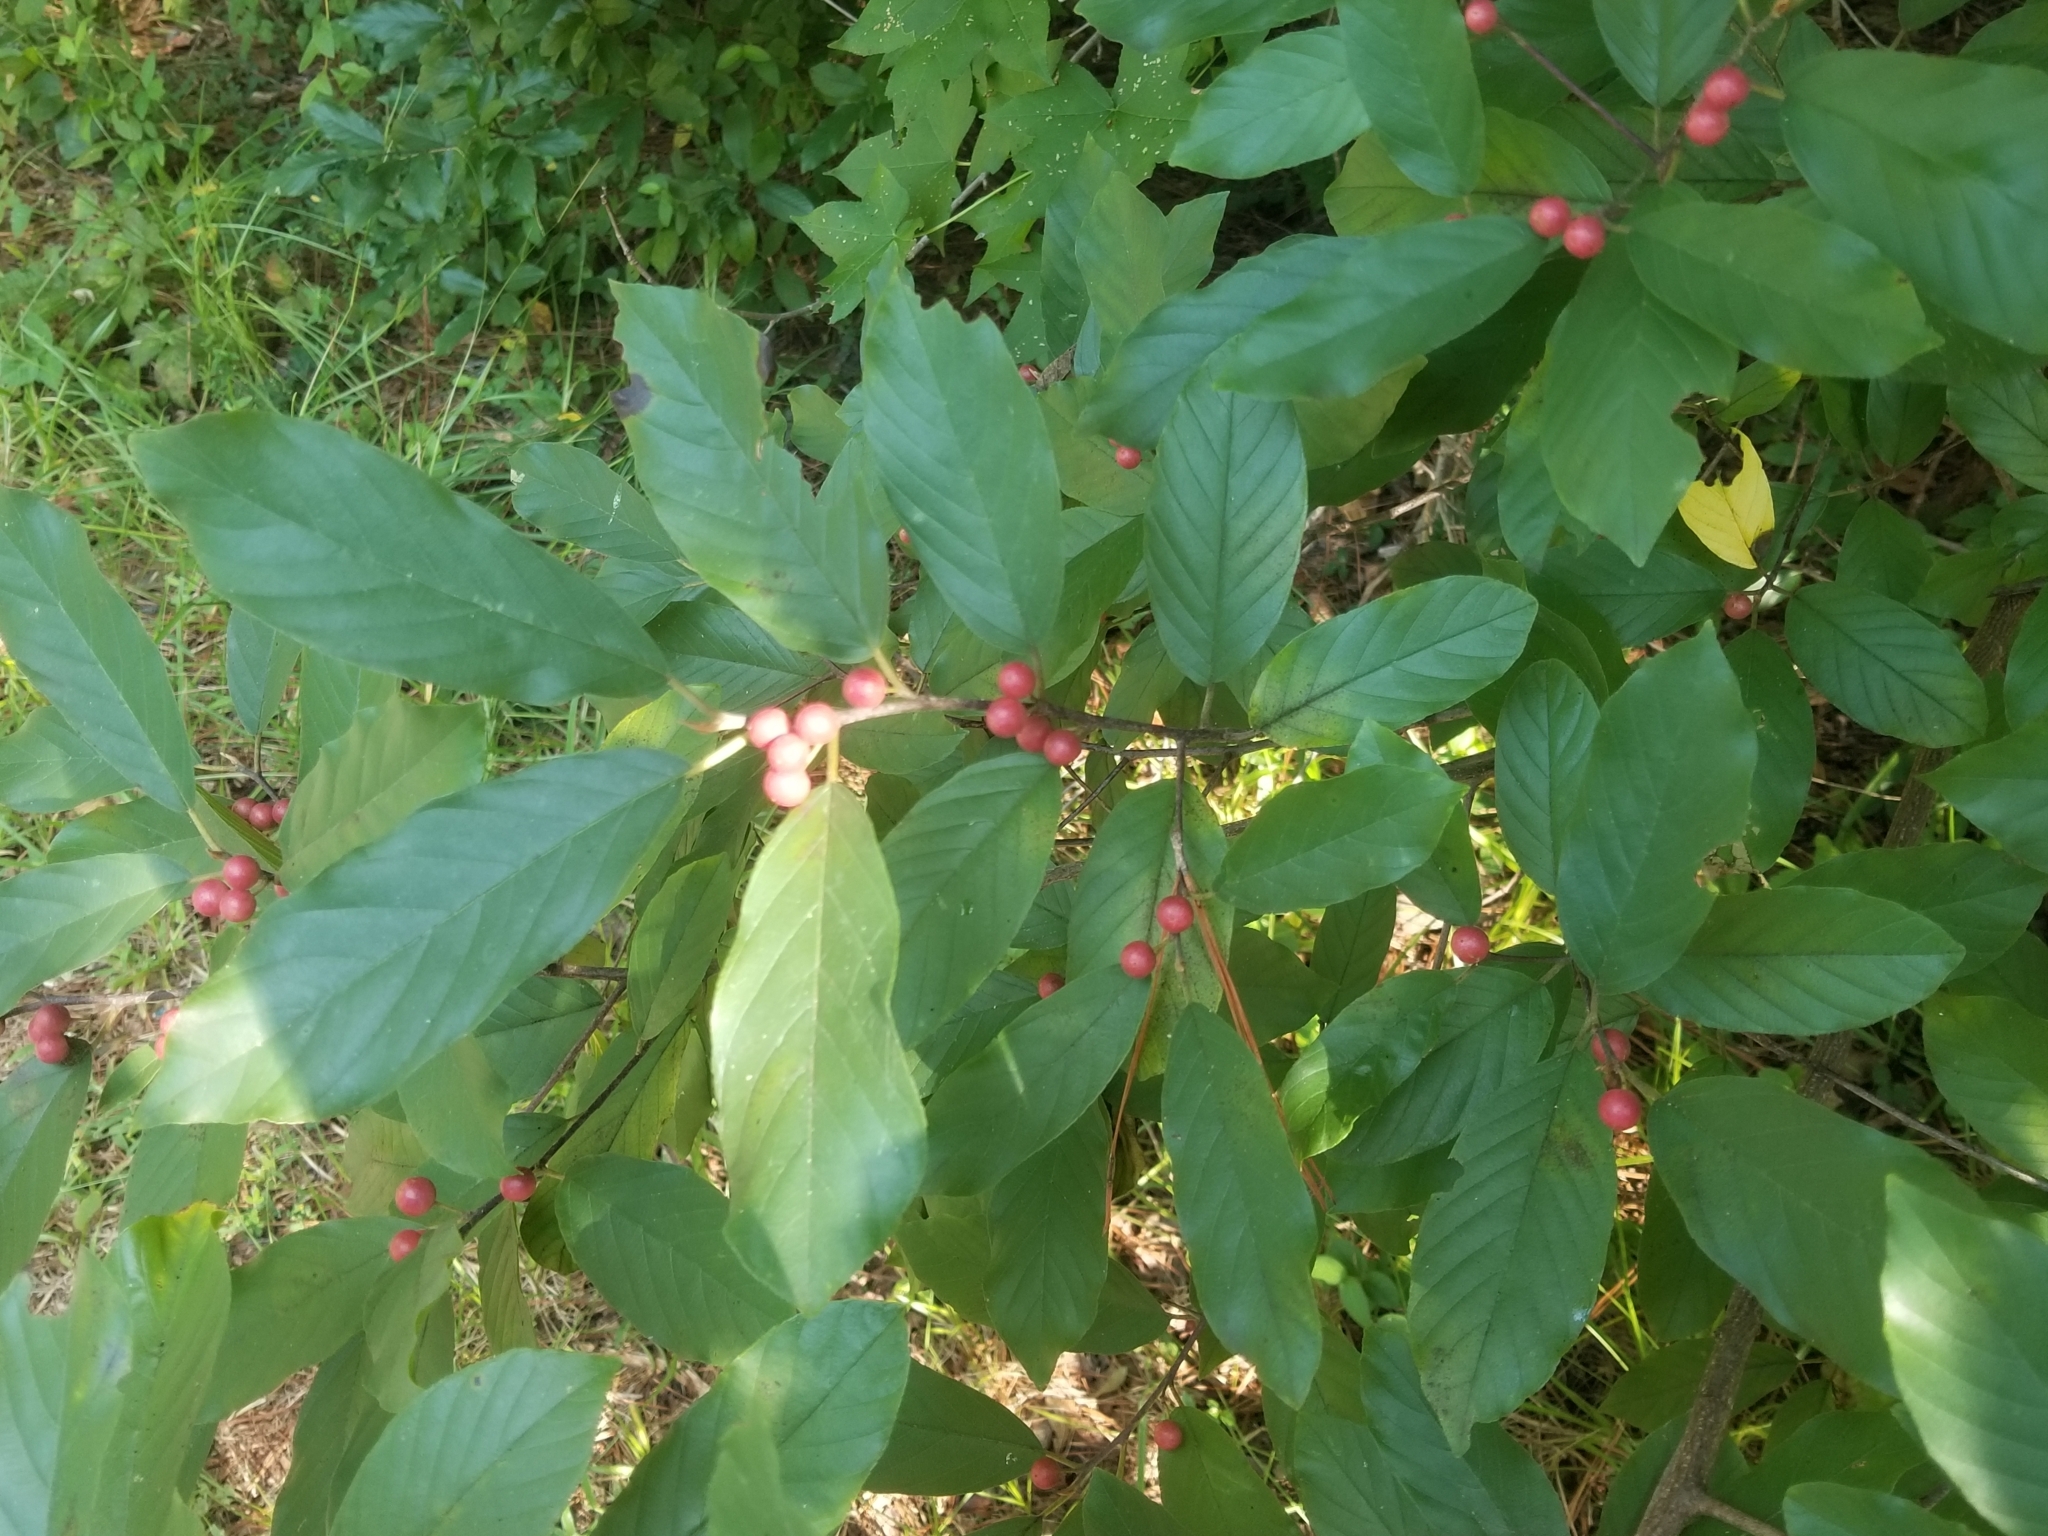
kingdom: Plantae
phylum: Tracheophyta
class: Magnoliopsida
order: Rosales
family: Rhamnaceae
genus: Frangula
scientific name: Frangula caroliniana
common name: Carolina buckthorn
